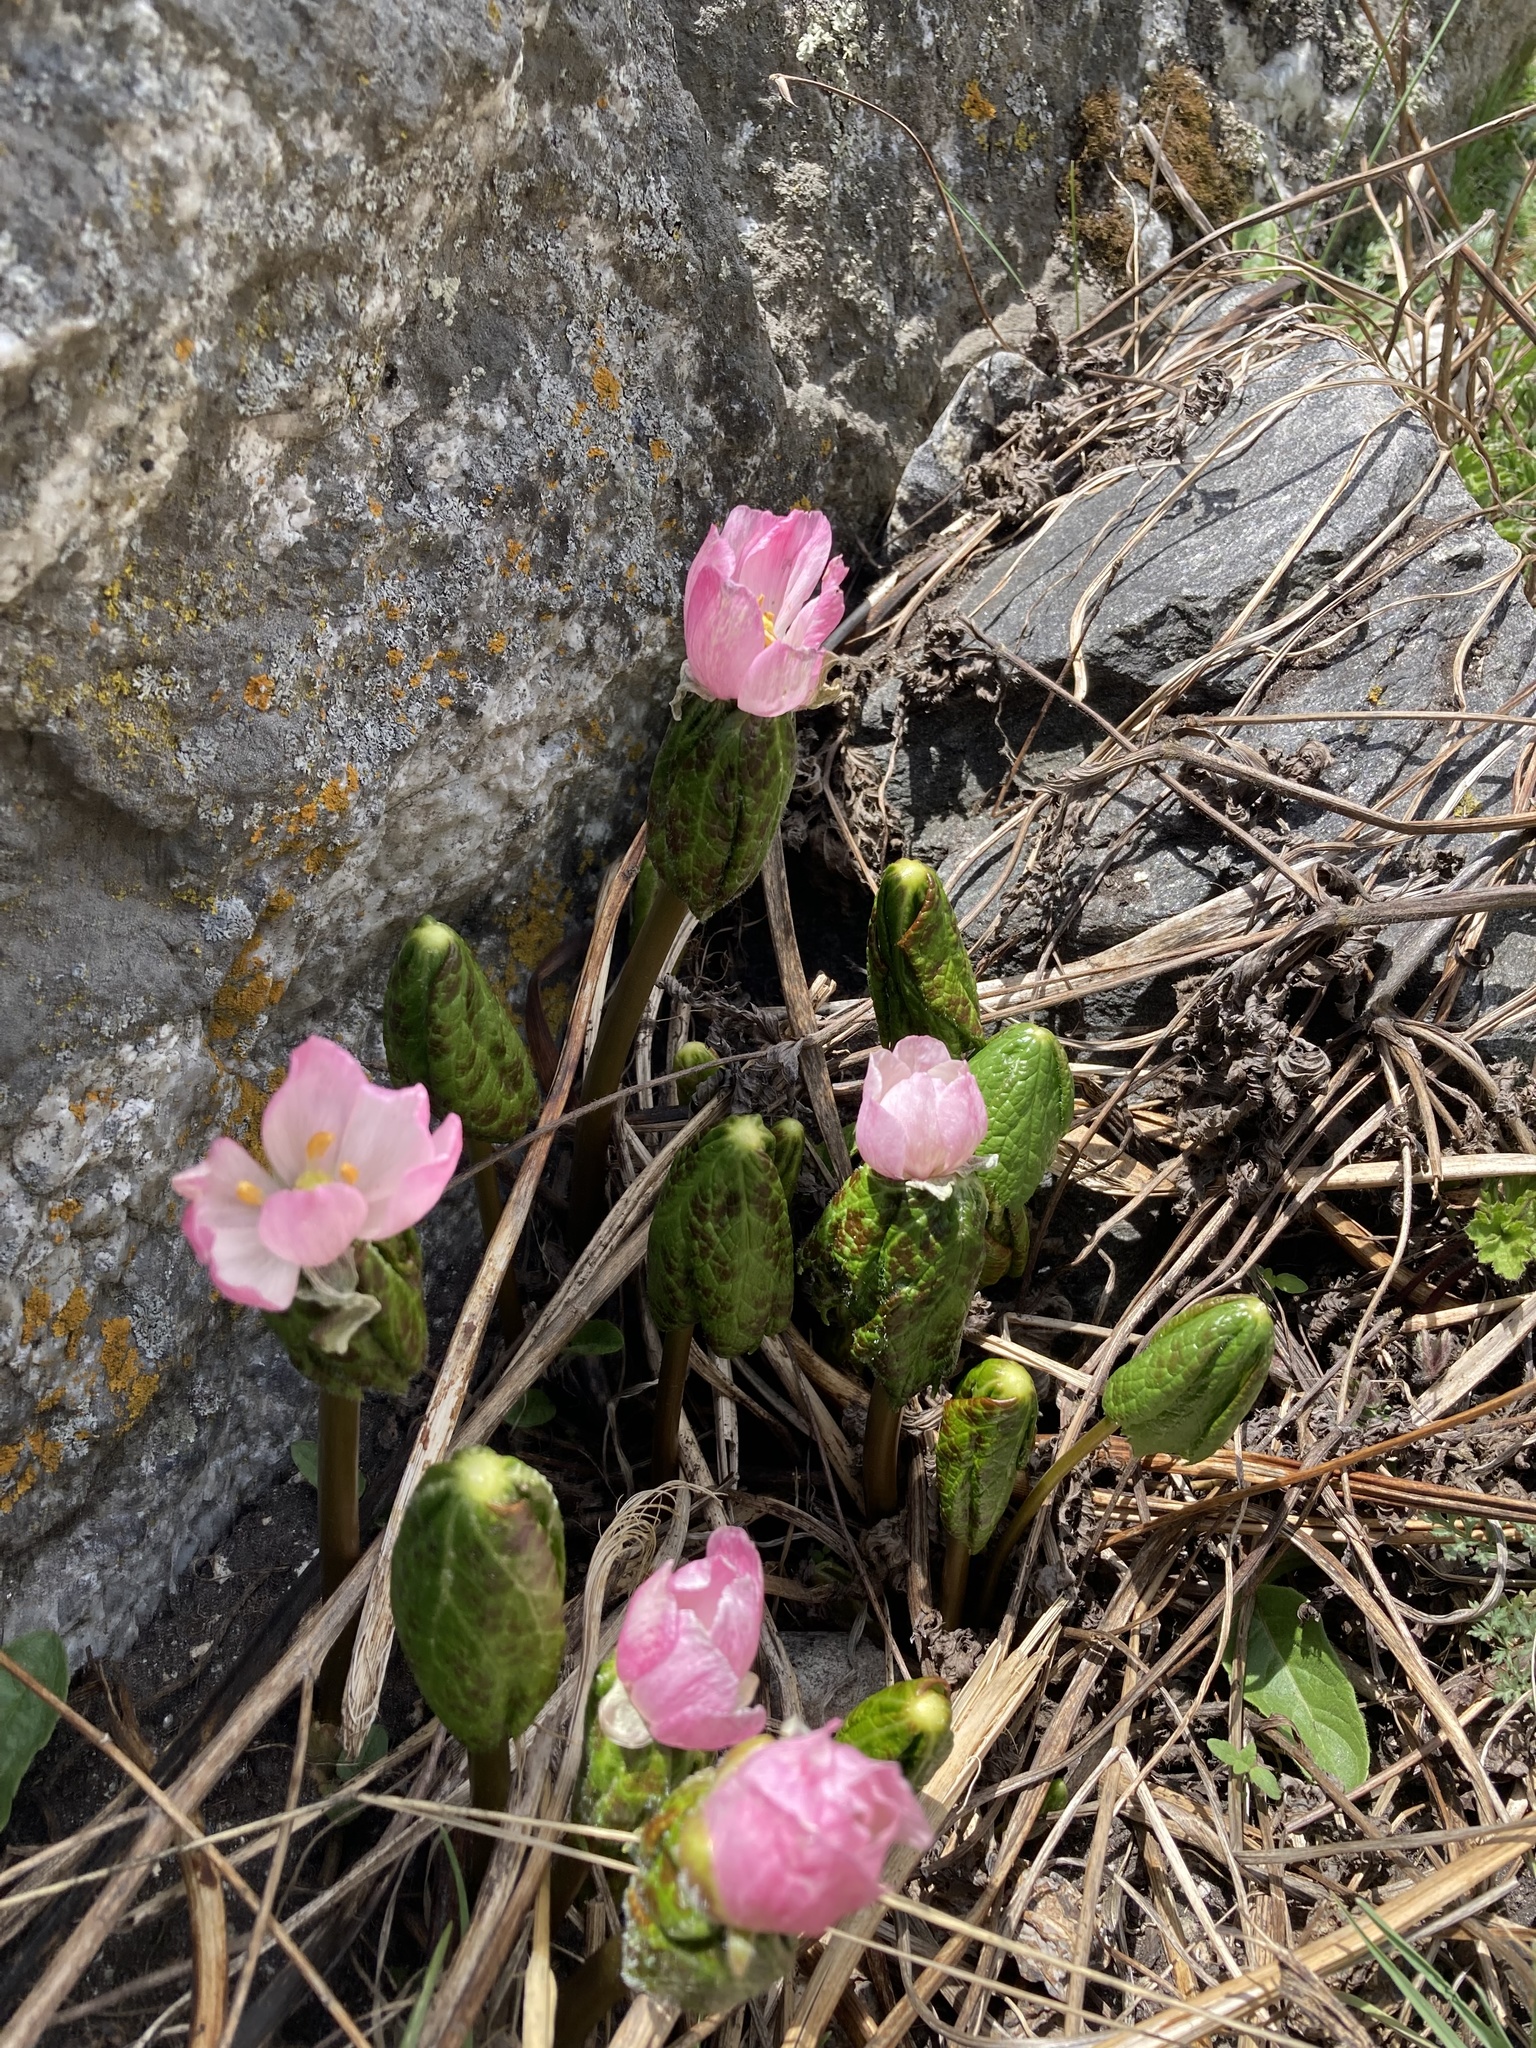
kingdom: Plantae
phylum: Tracheophyta
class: Magnoliopsida
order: Ranunculales
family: Berberidaceae
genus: Sinopodophyllum
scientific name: Sinopodophyllum hexandrum
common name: Himalayan may-apple
